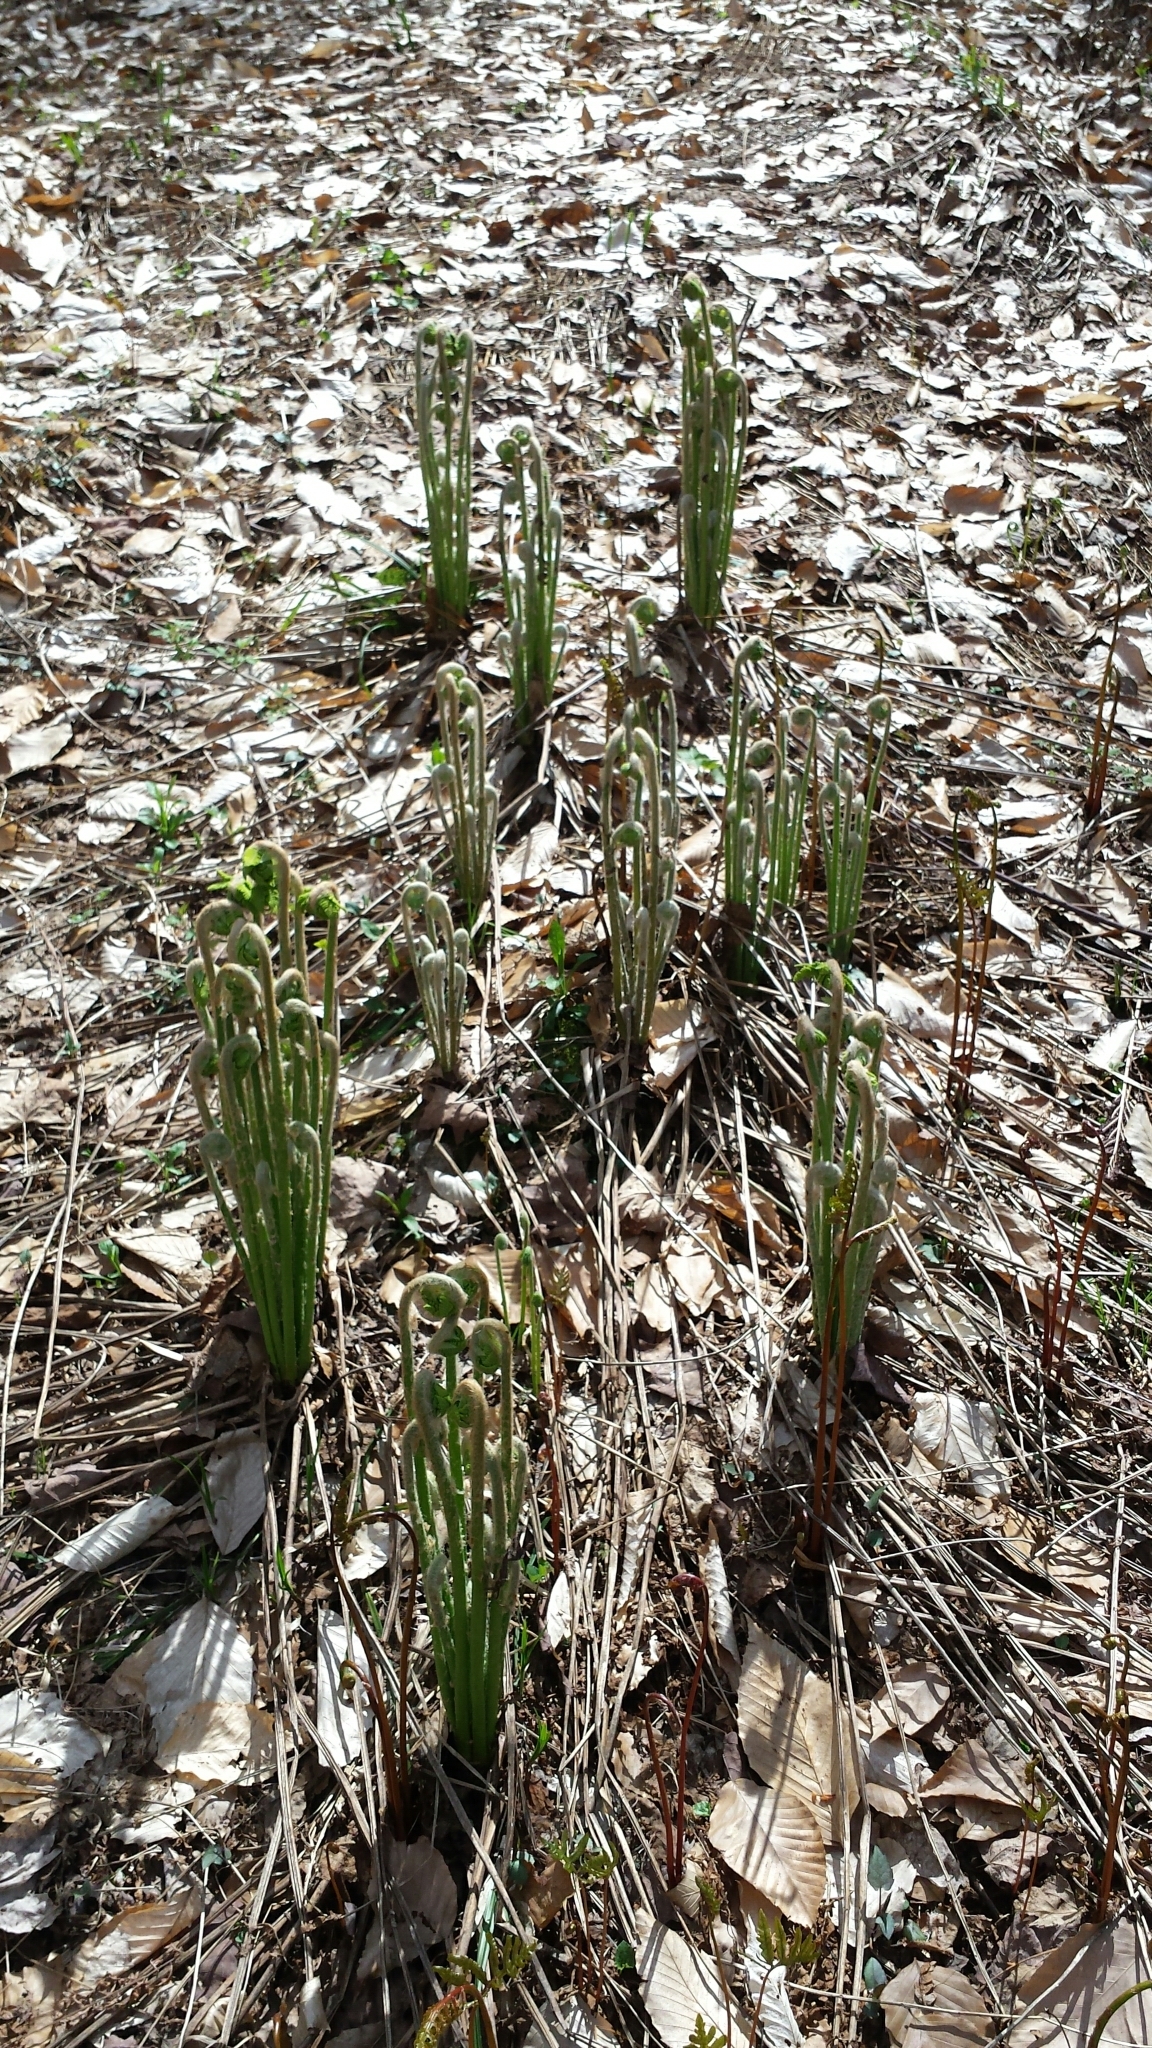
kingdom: Plantae
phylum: Tracheophyta
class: Polypodiopsida
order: Osmundales
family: Osmundaceae
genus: Claytosmunda
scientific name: Claytosmunda claytoniana
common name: Clayton's fern
